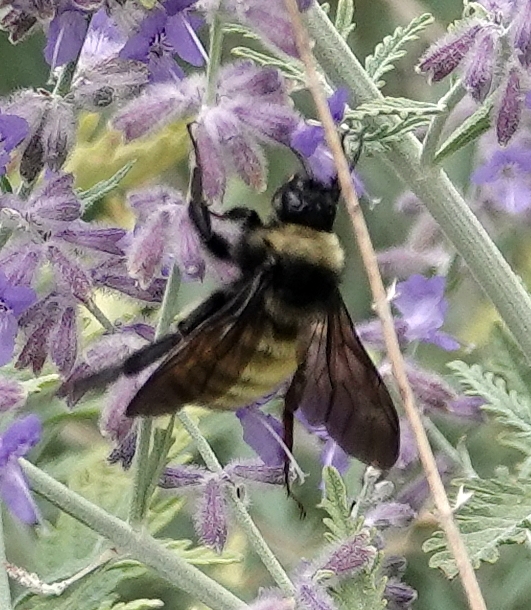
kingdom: Animalia
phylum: Arthropoda
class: Insecta
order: Hymenoptera
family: Apidae
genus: Bombus
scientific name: Bombus pensylvanicus
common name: Bumble bee
